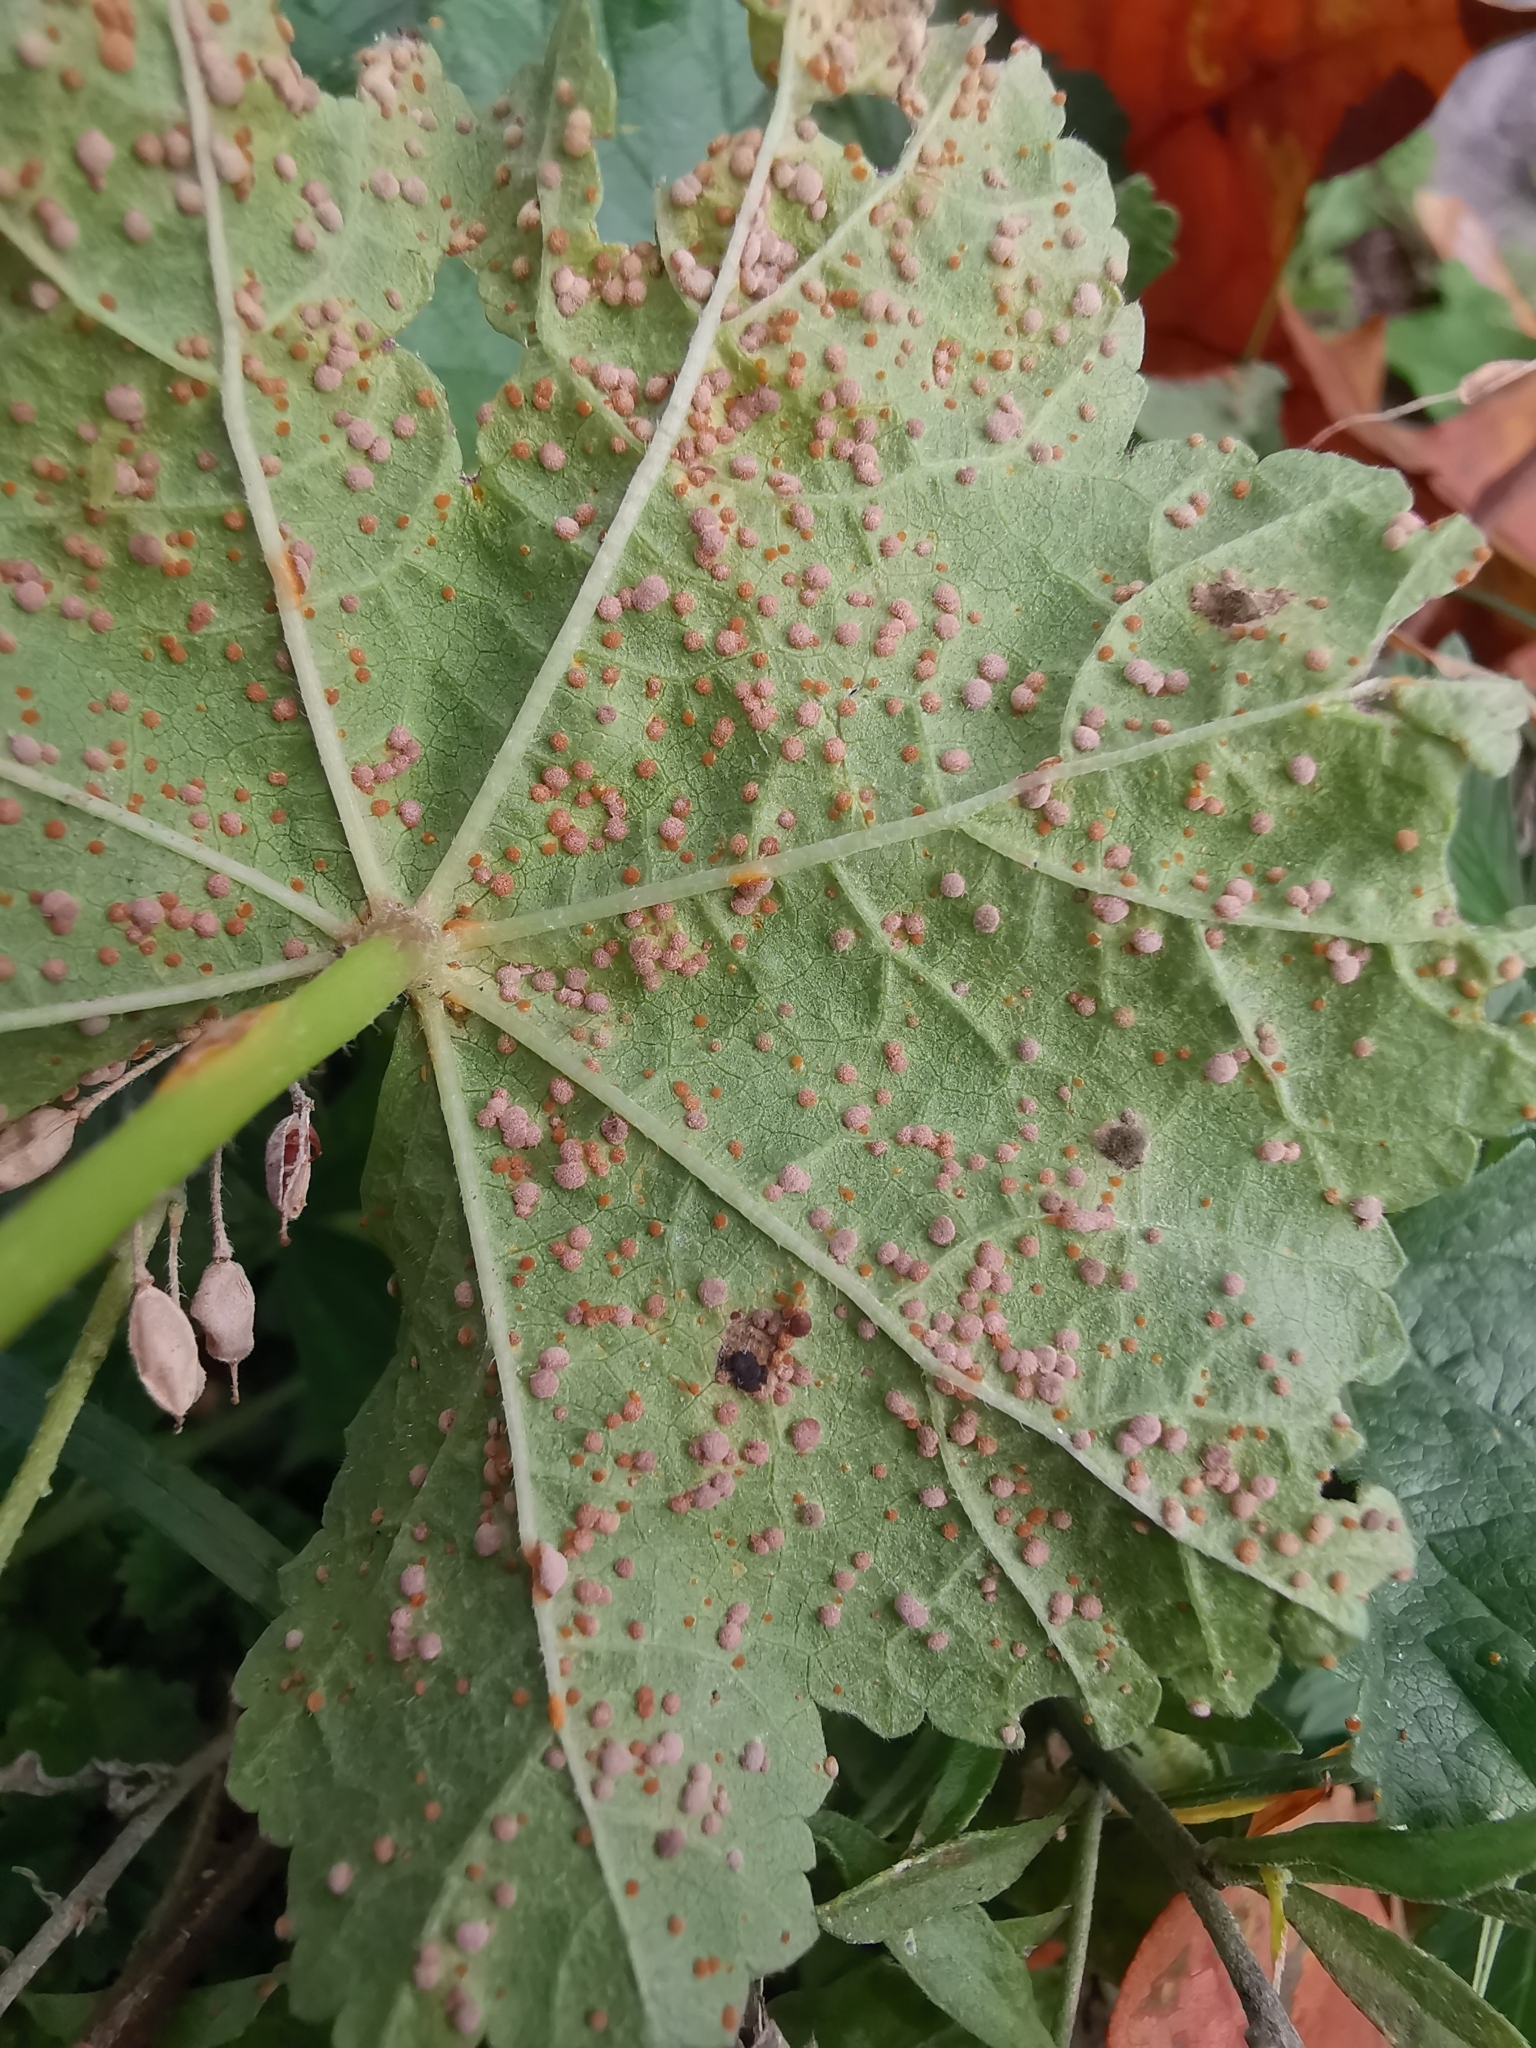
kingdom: Fungi
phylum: Basidiomycota
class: Pucciniomycetes
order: Pucciniales
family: Pucciniaceae
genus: Puccinia
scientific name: Puccinia malvacearum
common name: Hollyhock rust
